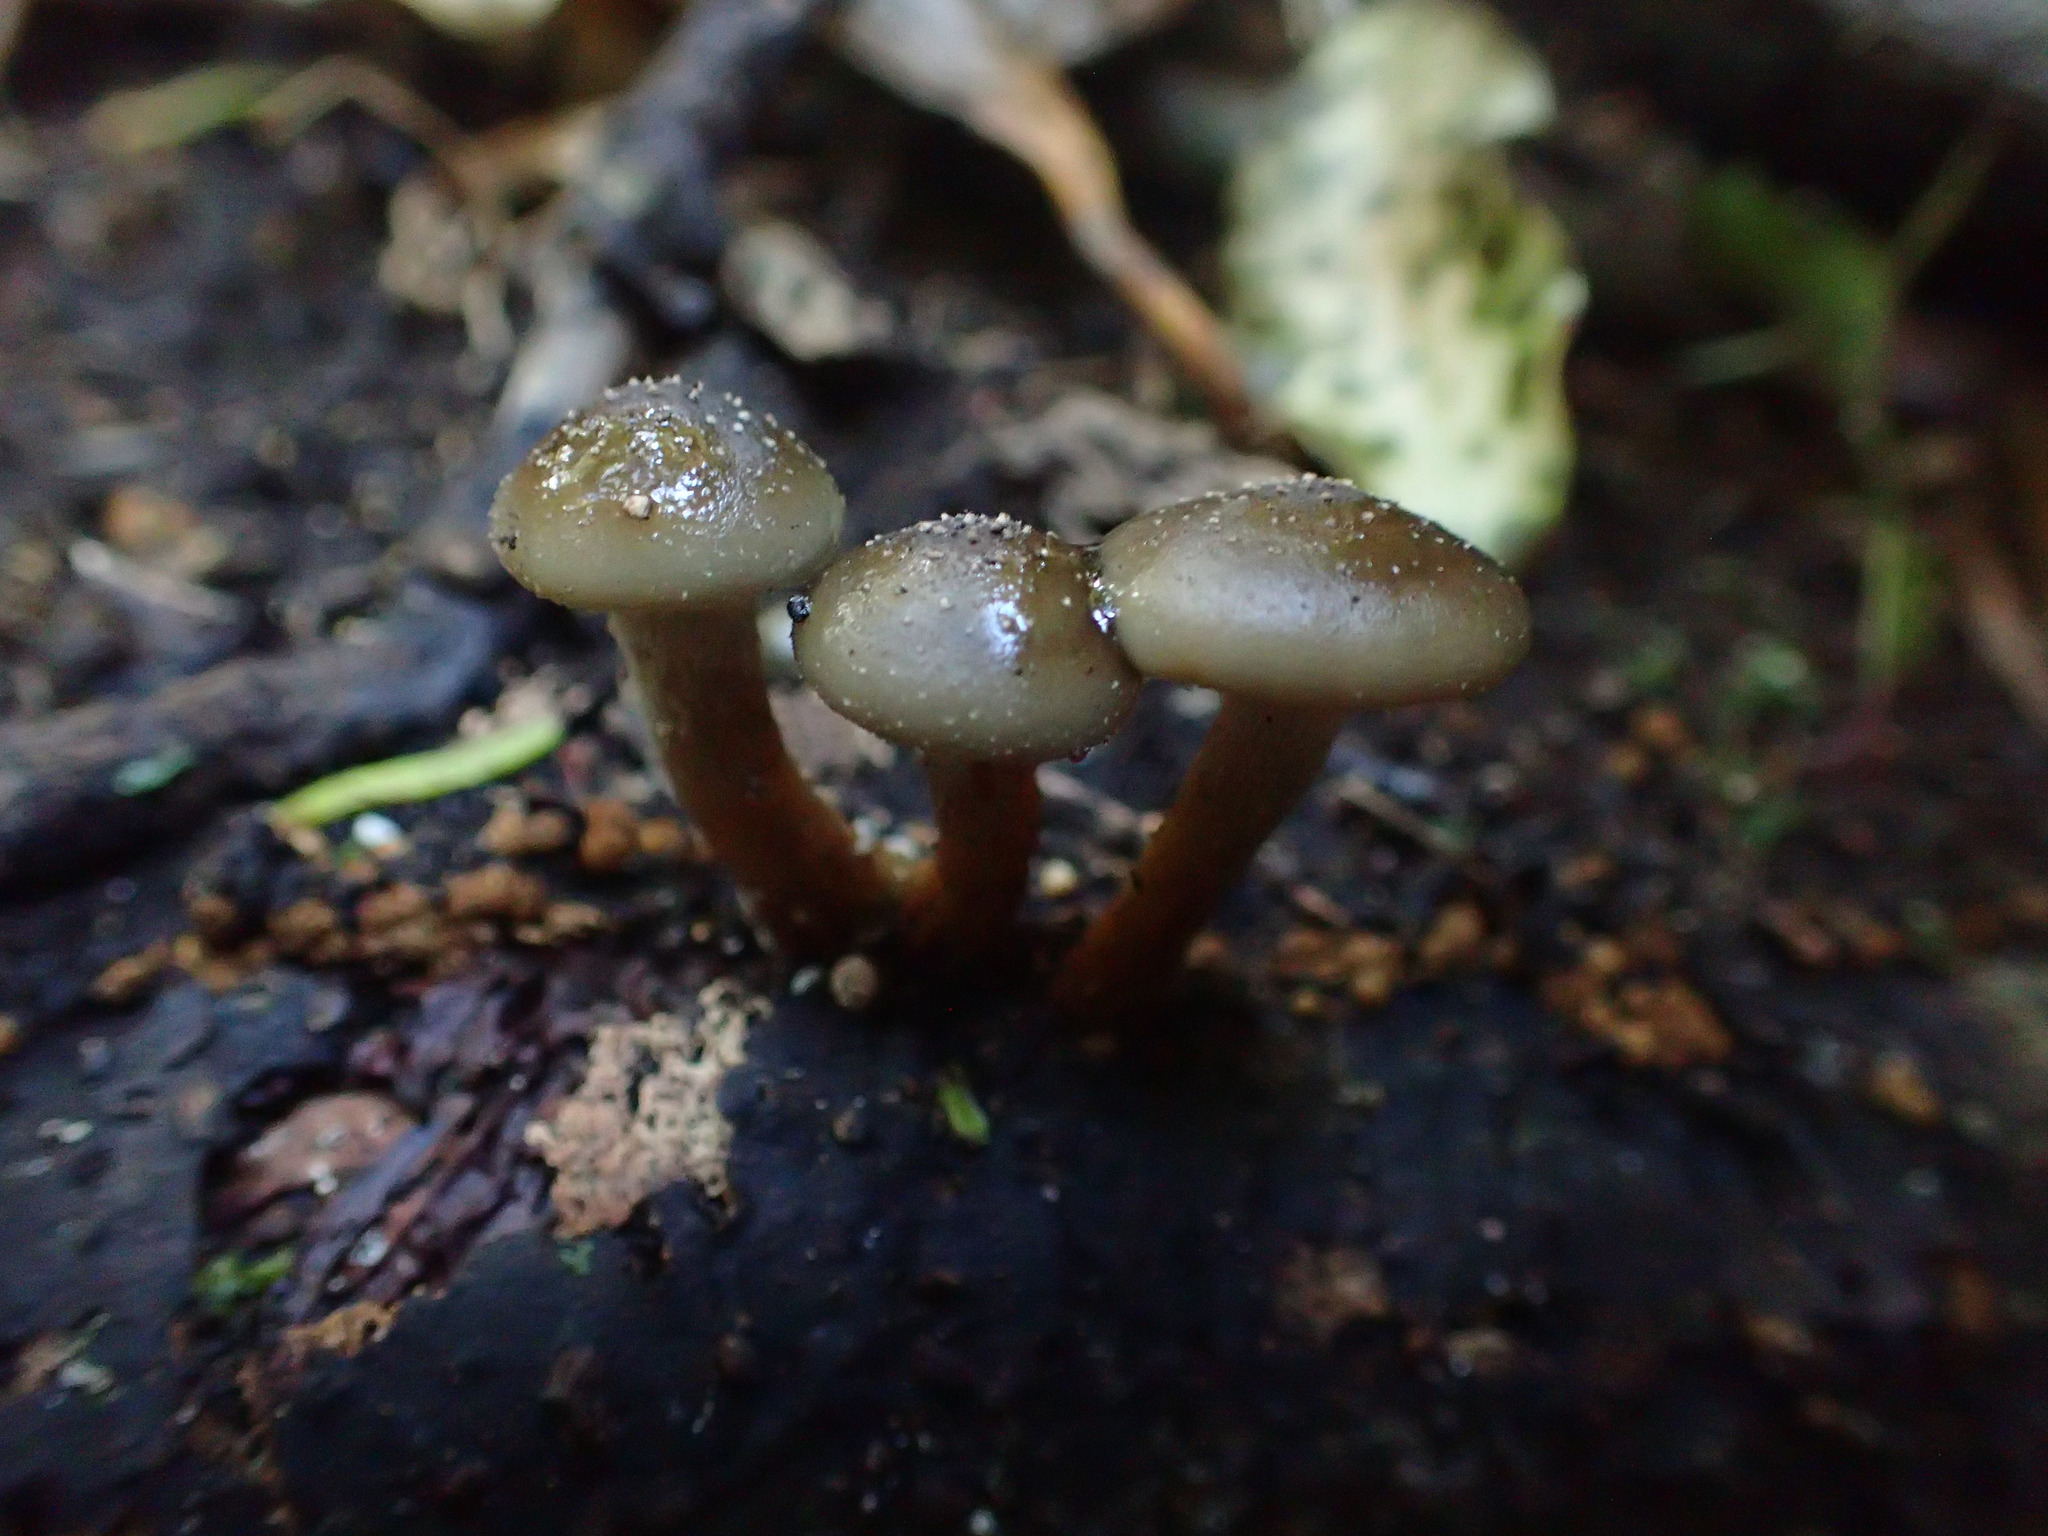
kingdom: Fungi
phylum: Basidiomycota
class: Agaricomycetes
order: Agaricales
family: Physalacriaceae
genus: Armillaria
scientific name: Armillaria novae-zelandiae
